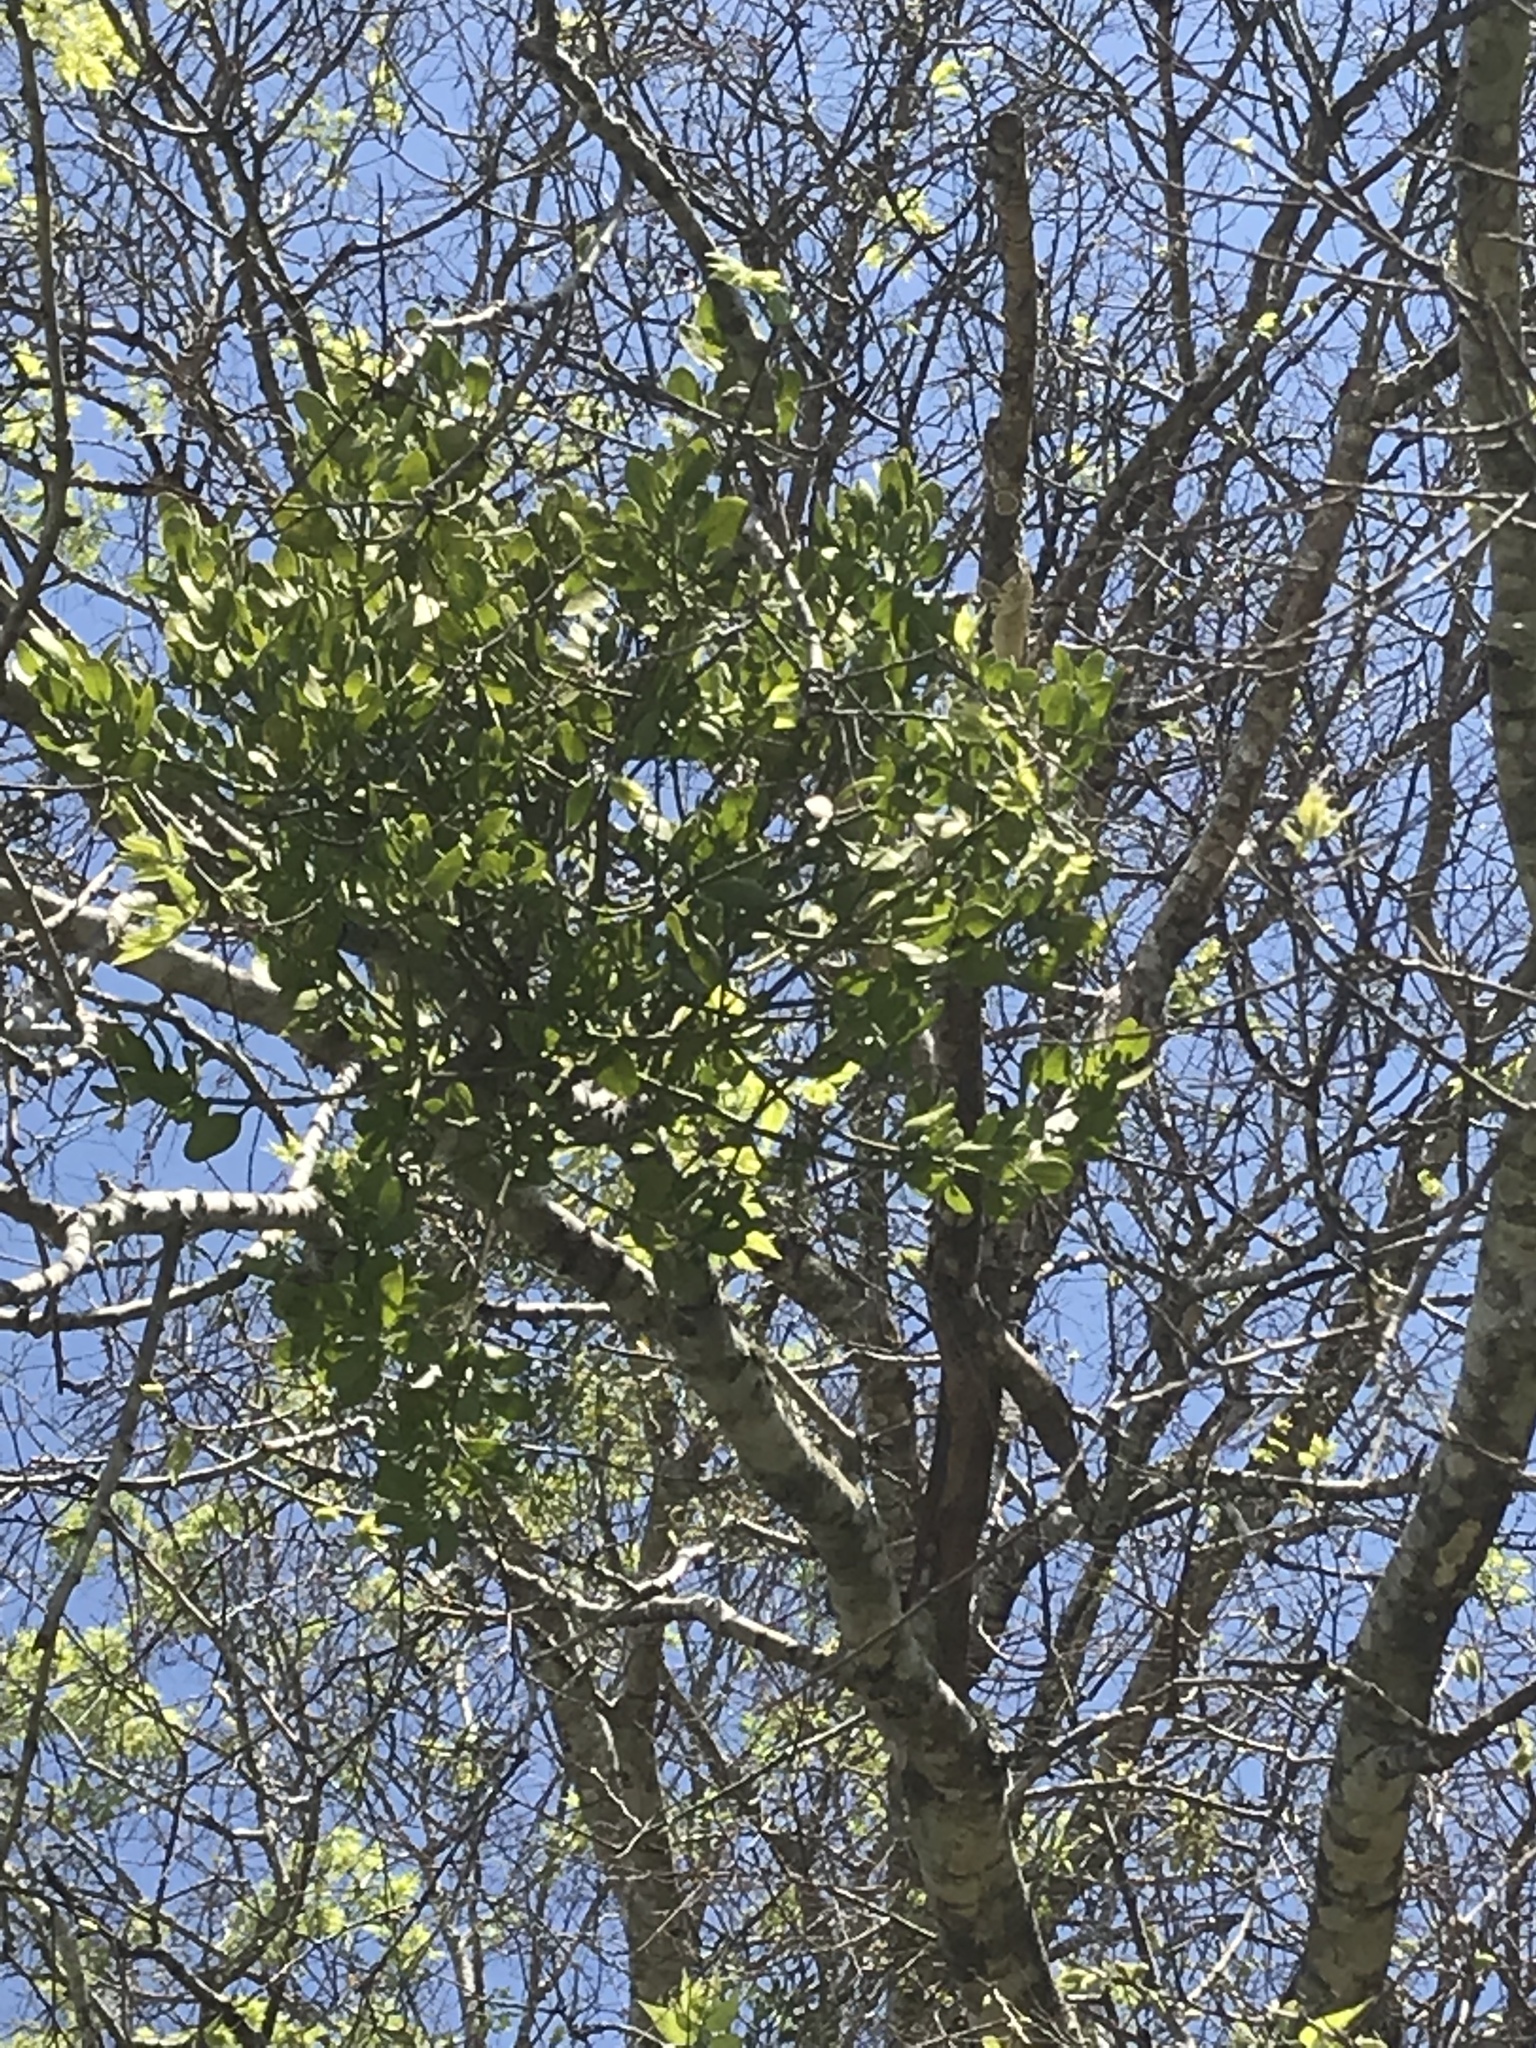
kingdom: Plantae
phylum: Tracheophyta
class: Magnoliopsida
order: Santalales
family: Viscaceae
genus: Phoradendron
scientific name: Phoradendron leucarpum
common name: Pacific mistletoe
